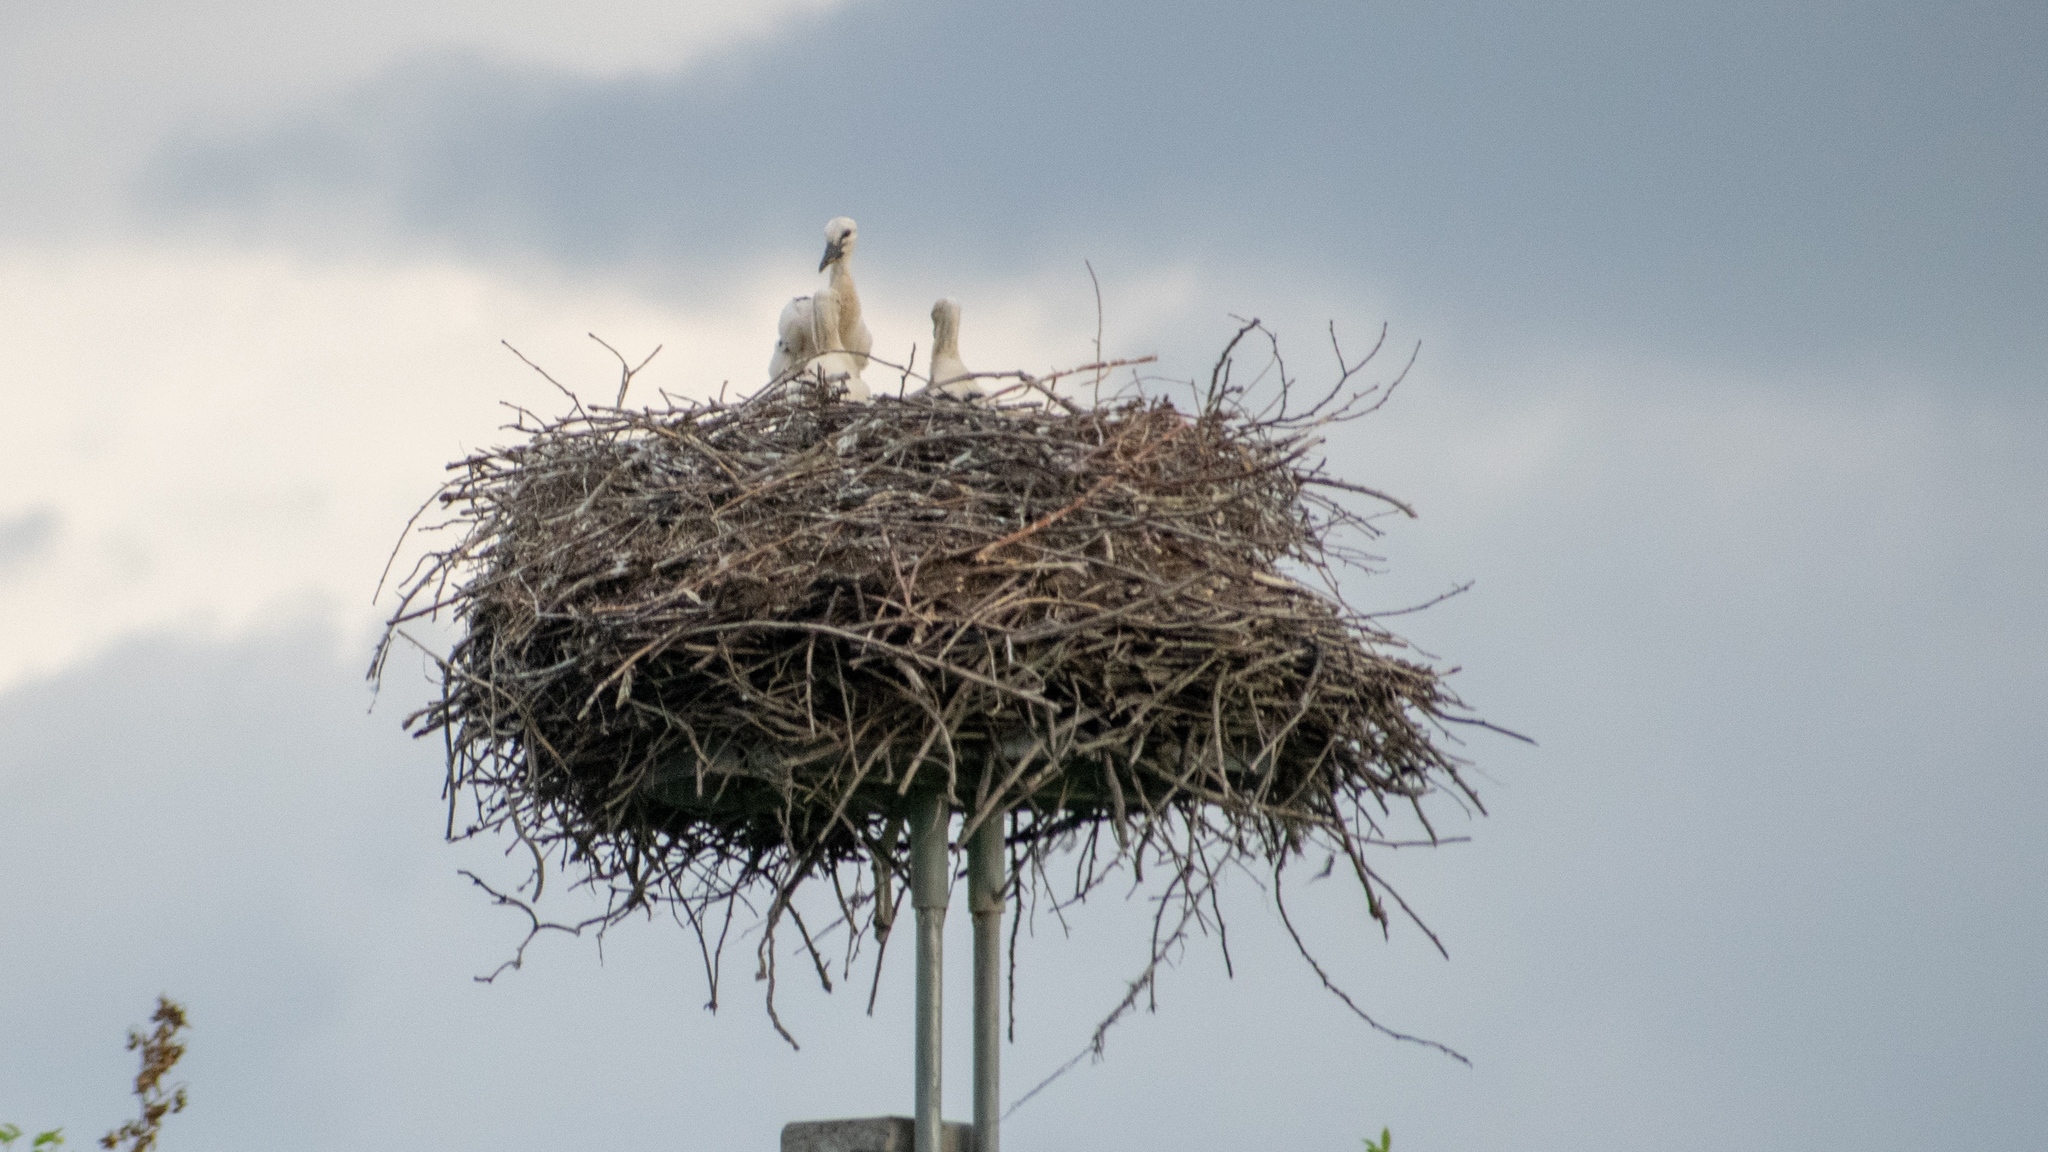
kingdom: Animalia
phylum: Chordata
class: Aves
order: Ciconiiformes
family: Ciconiidae
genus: Ciconia
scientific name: Ciconia ciconia
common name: White stork
